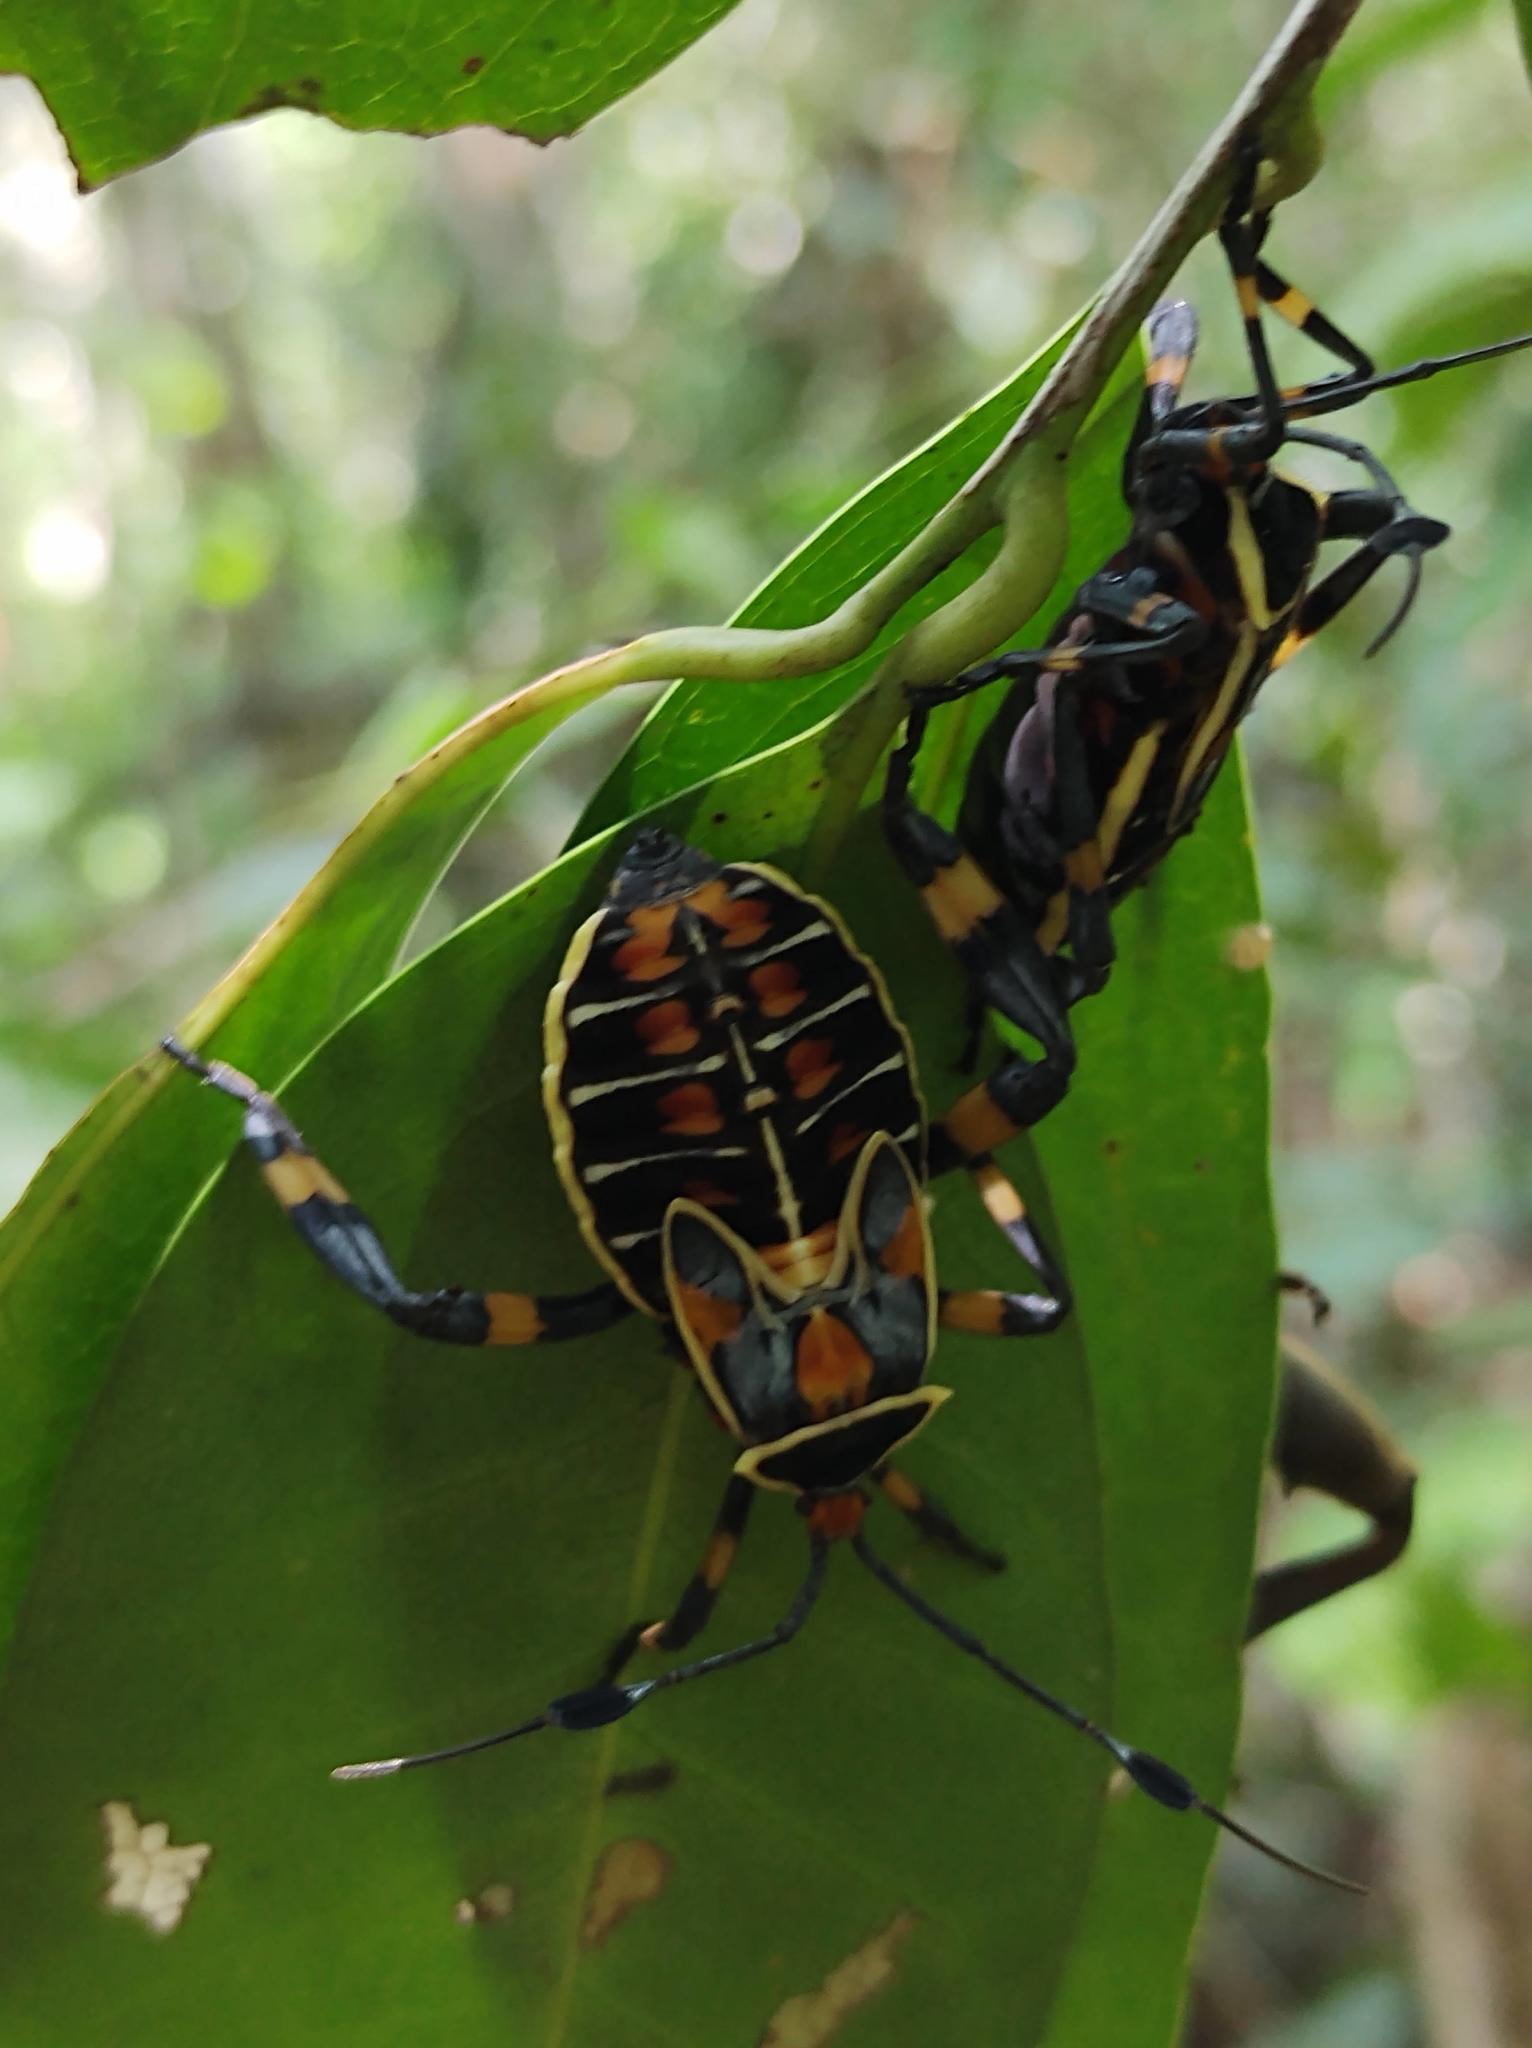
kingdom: Animalia
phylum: Arthropoda
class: Insecta
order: Hemiptera
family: Coreidae
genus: Thasus
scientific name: Thasus acutangulus
